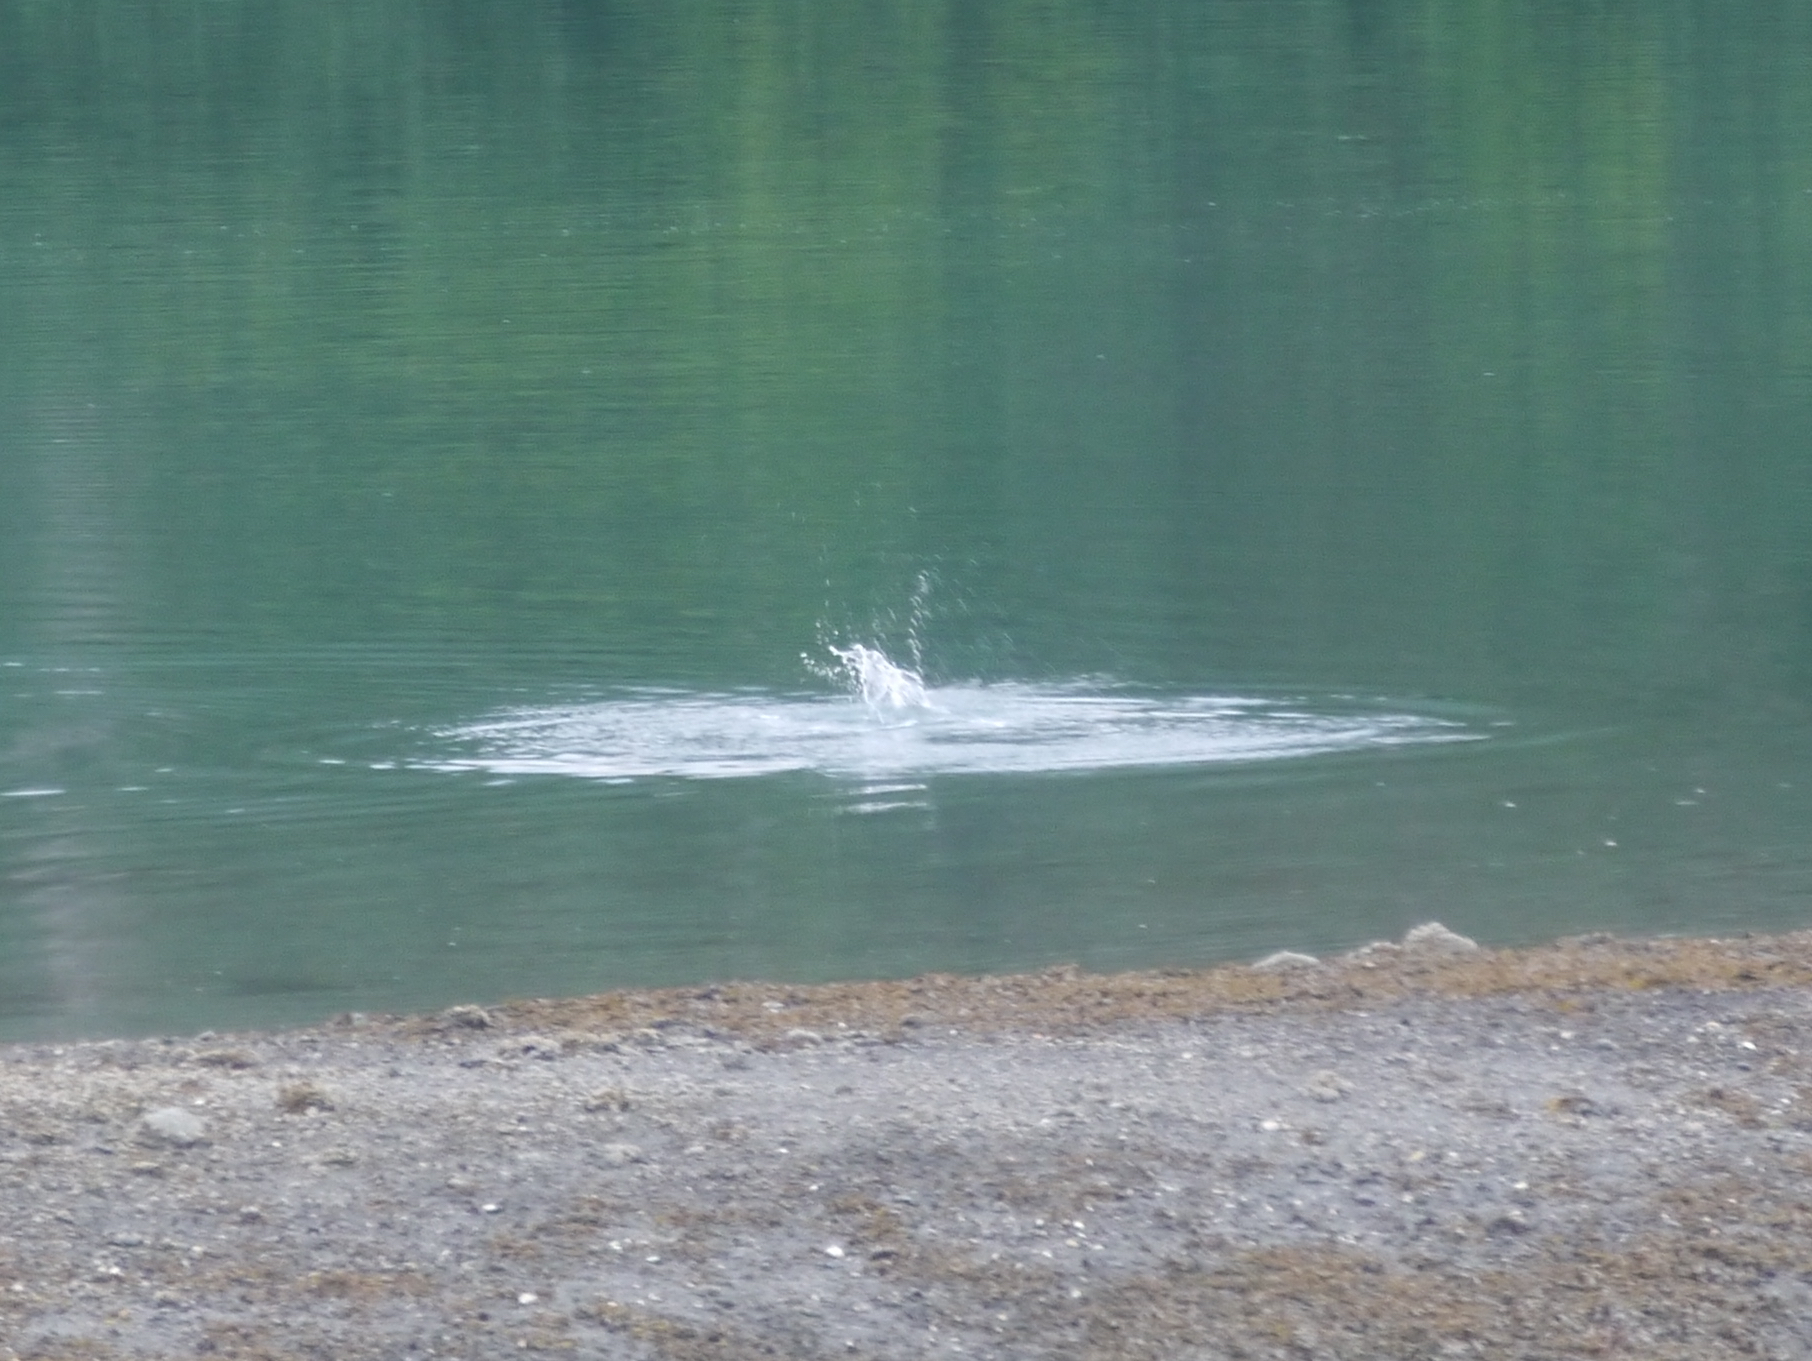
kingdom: Animalia
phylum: Chordata
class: Mammalia
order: Carnivora
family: Phocidae
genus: Phoca
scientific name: Phoca vitulina
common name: Harbor seal
